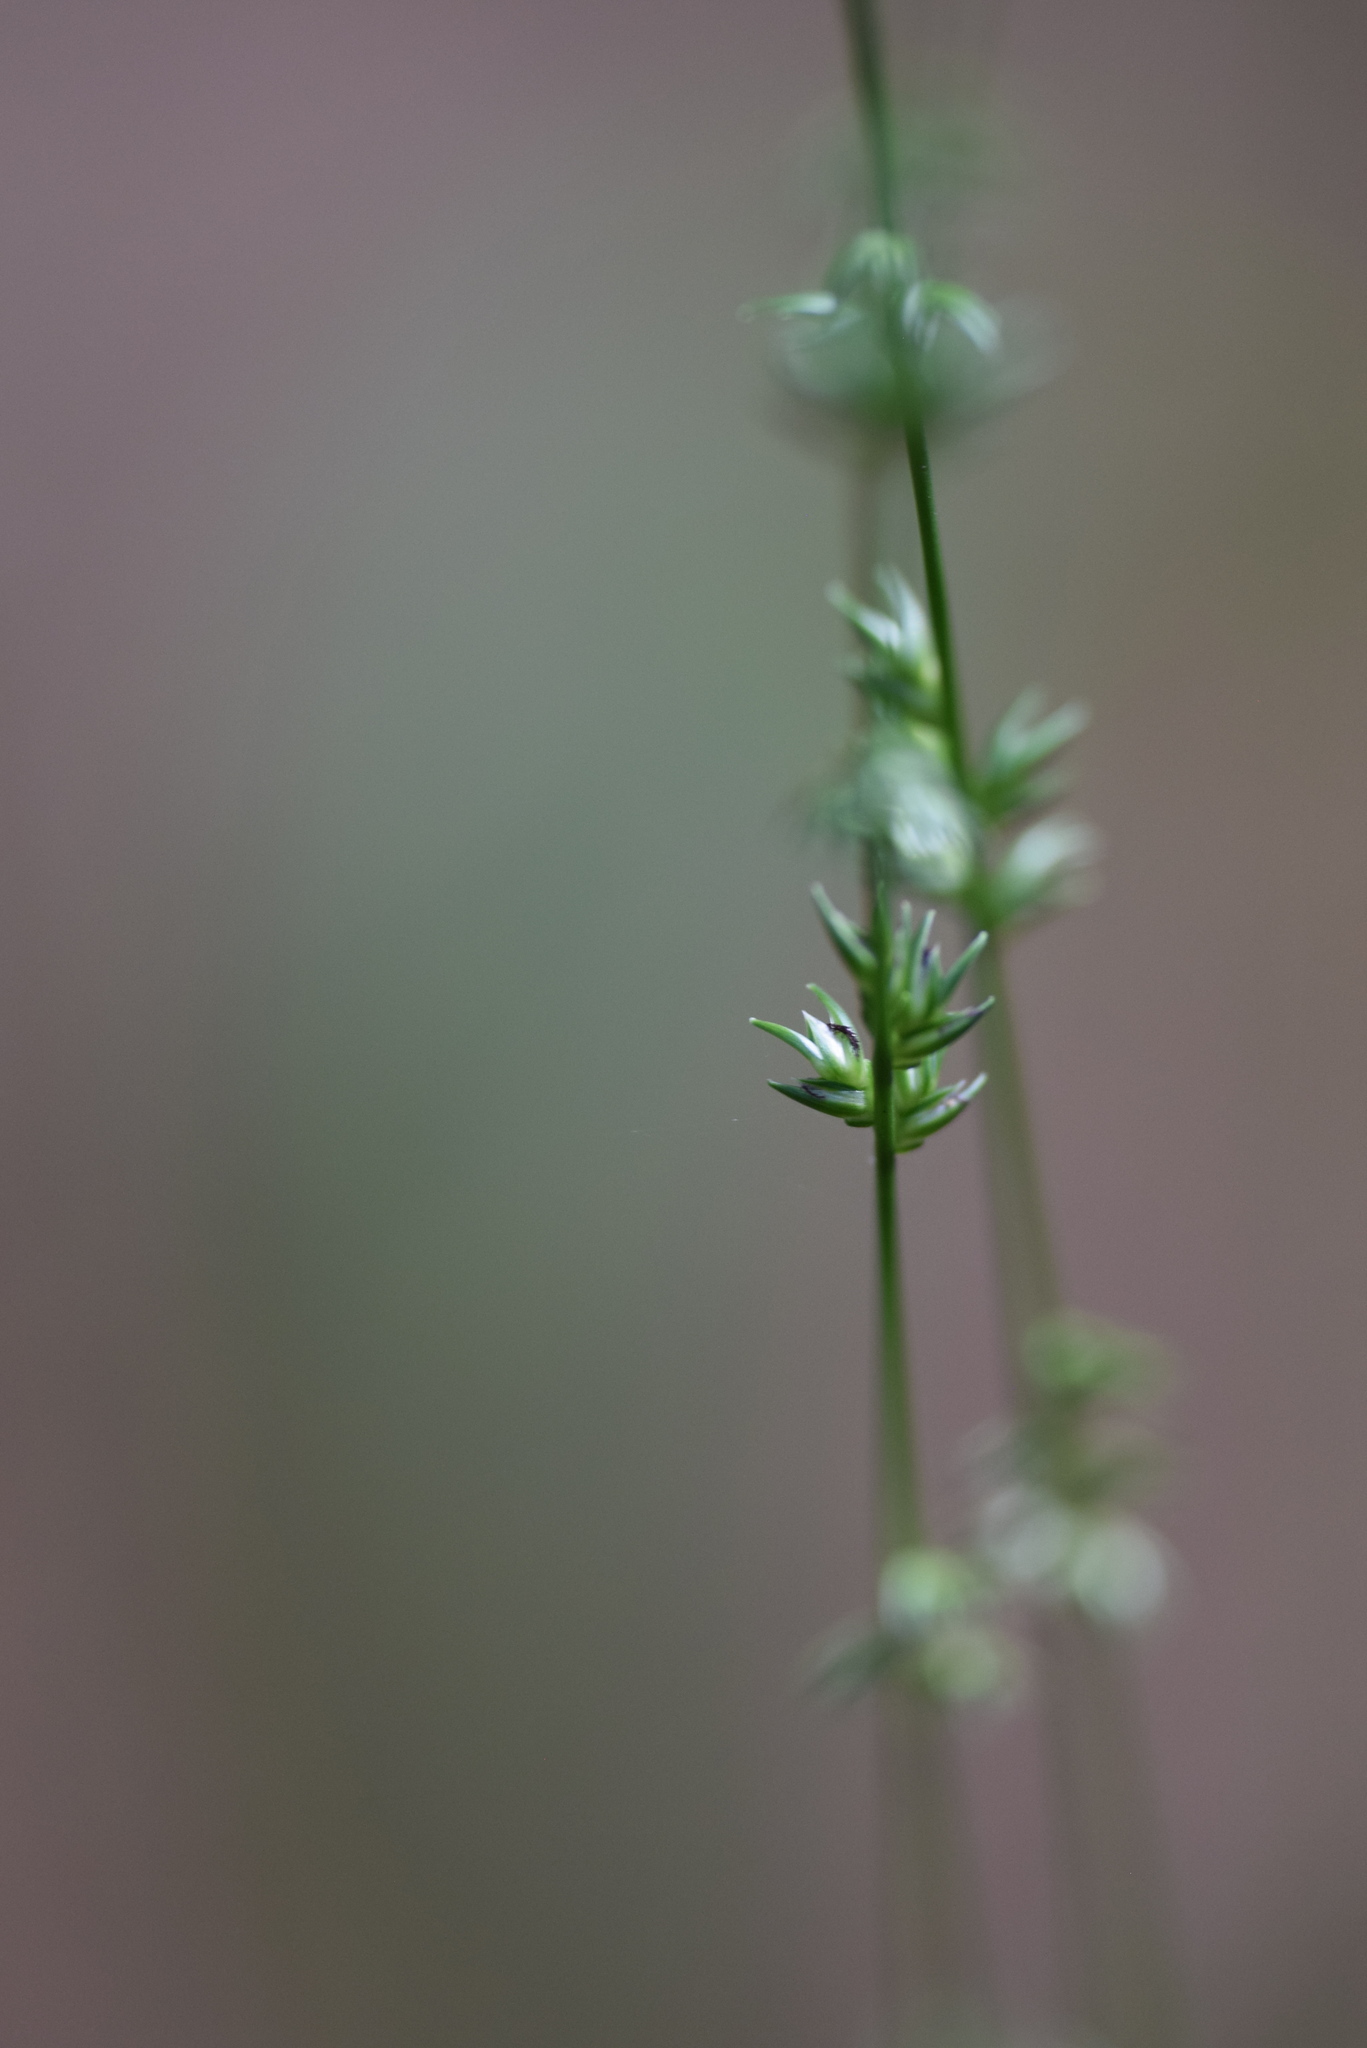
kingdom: Plantae
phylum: Tracheophyta
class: Liliopsida
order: Poales
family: Poaceae
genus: Chasmanthium
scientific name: Chasmanthium laxum
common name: Slender chasmanthium
